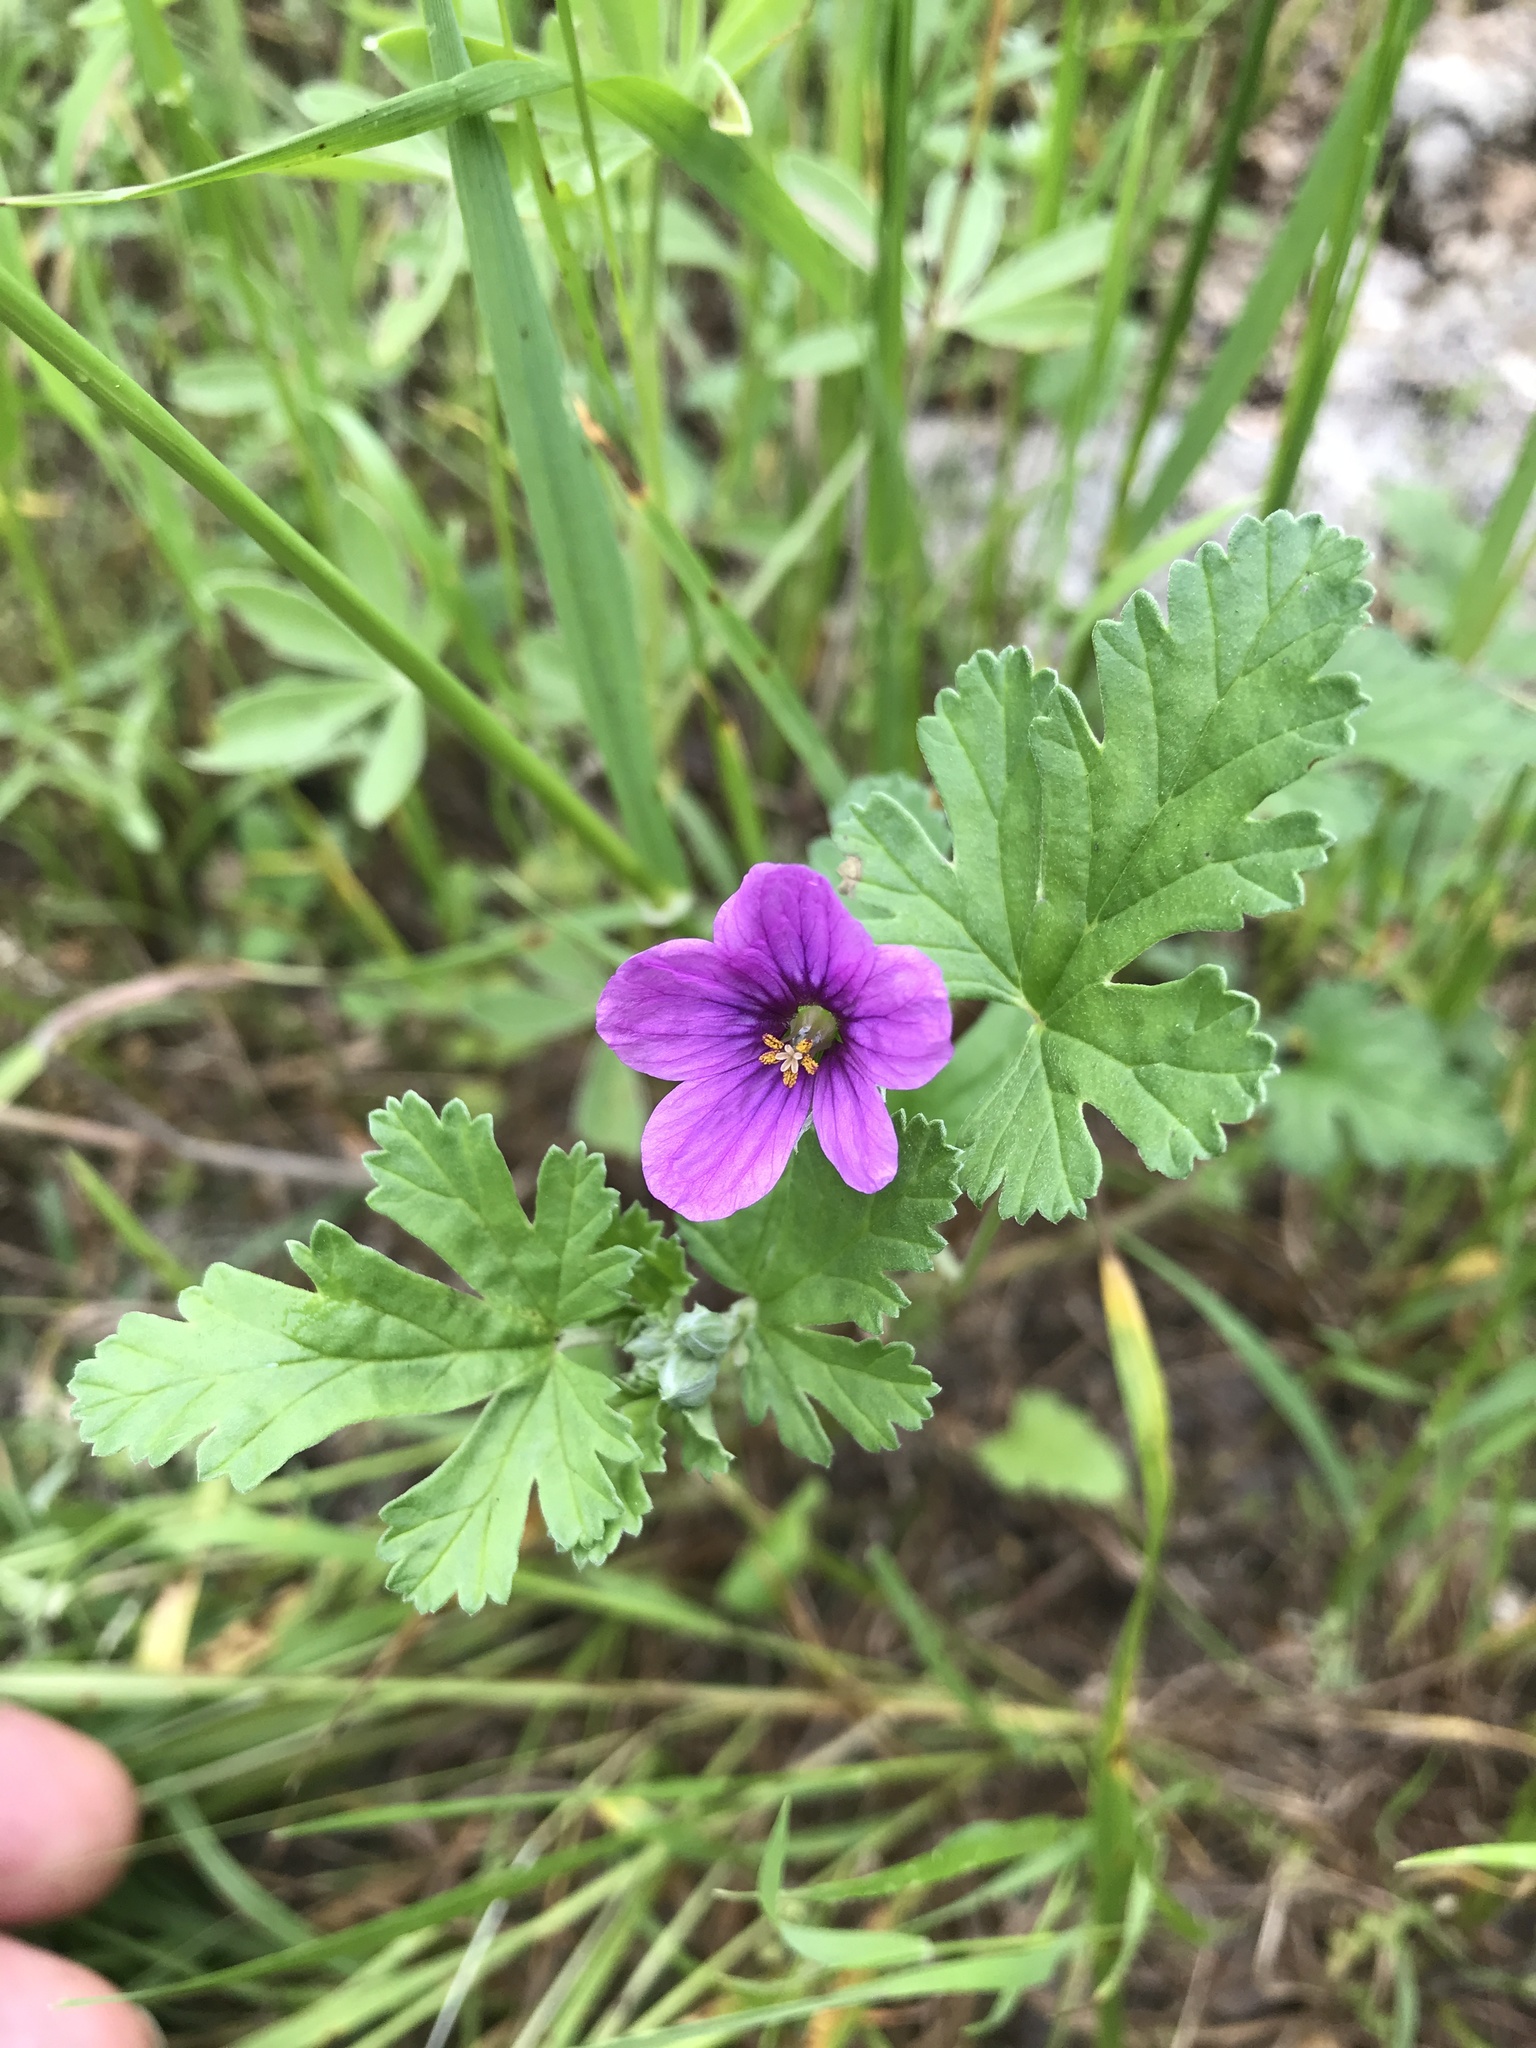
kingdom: Plantae
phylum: Tracheophyta
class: Magnoliopsida
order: Geraniales
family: Geraniaceae
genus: Erodium
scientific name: Erodium texanum
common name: Texas stork's-bill
